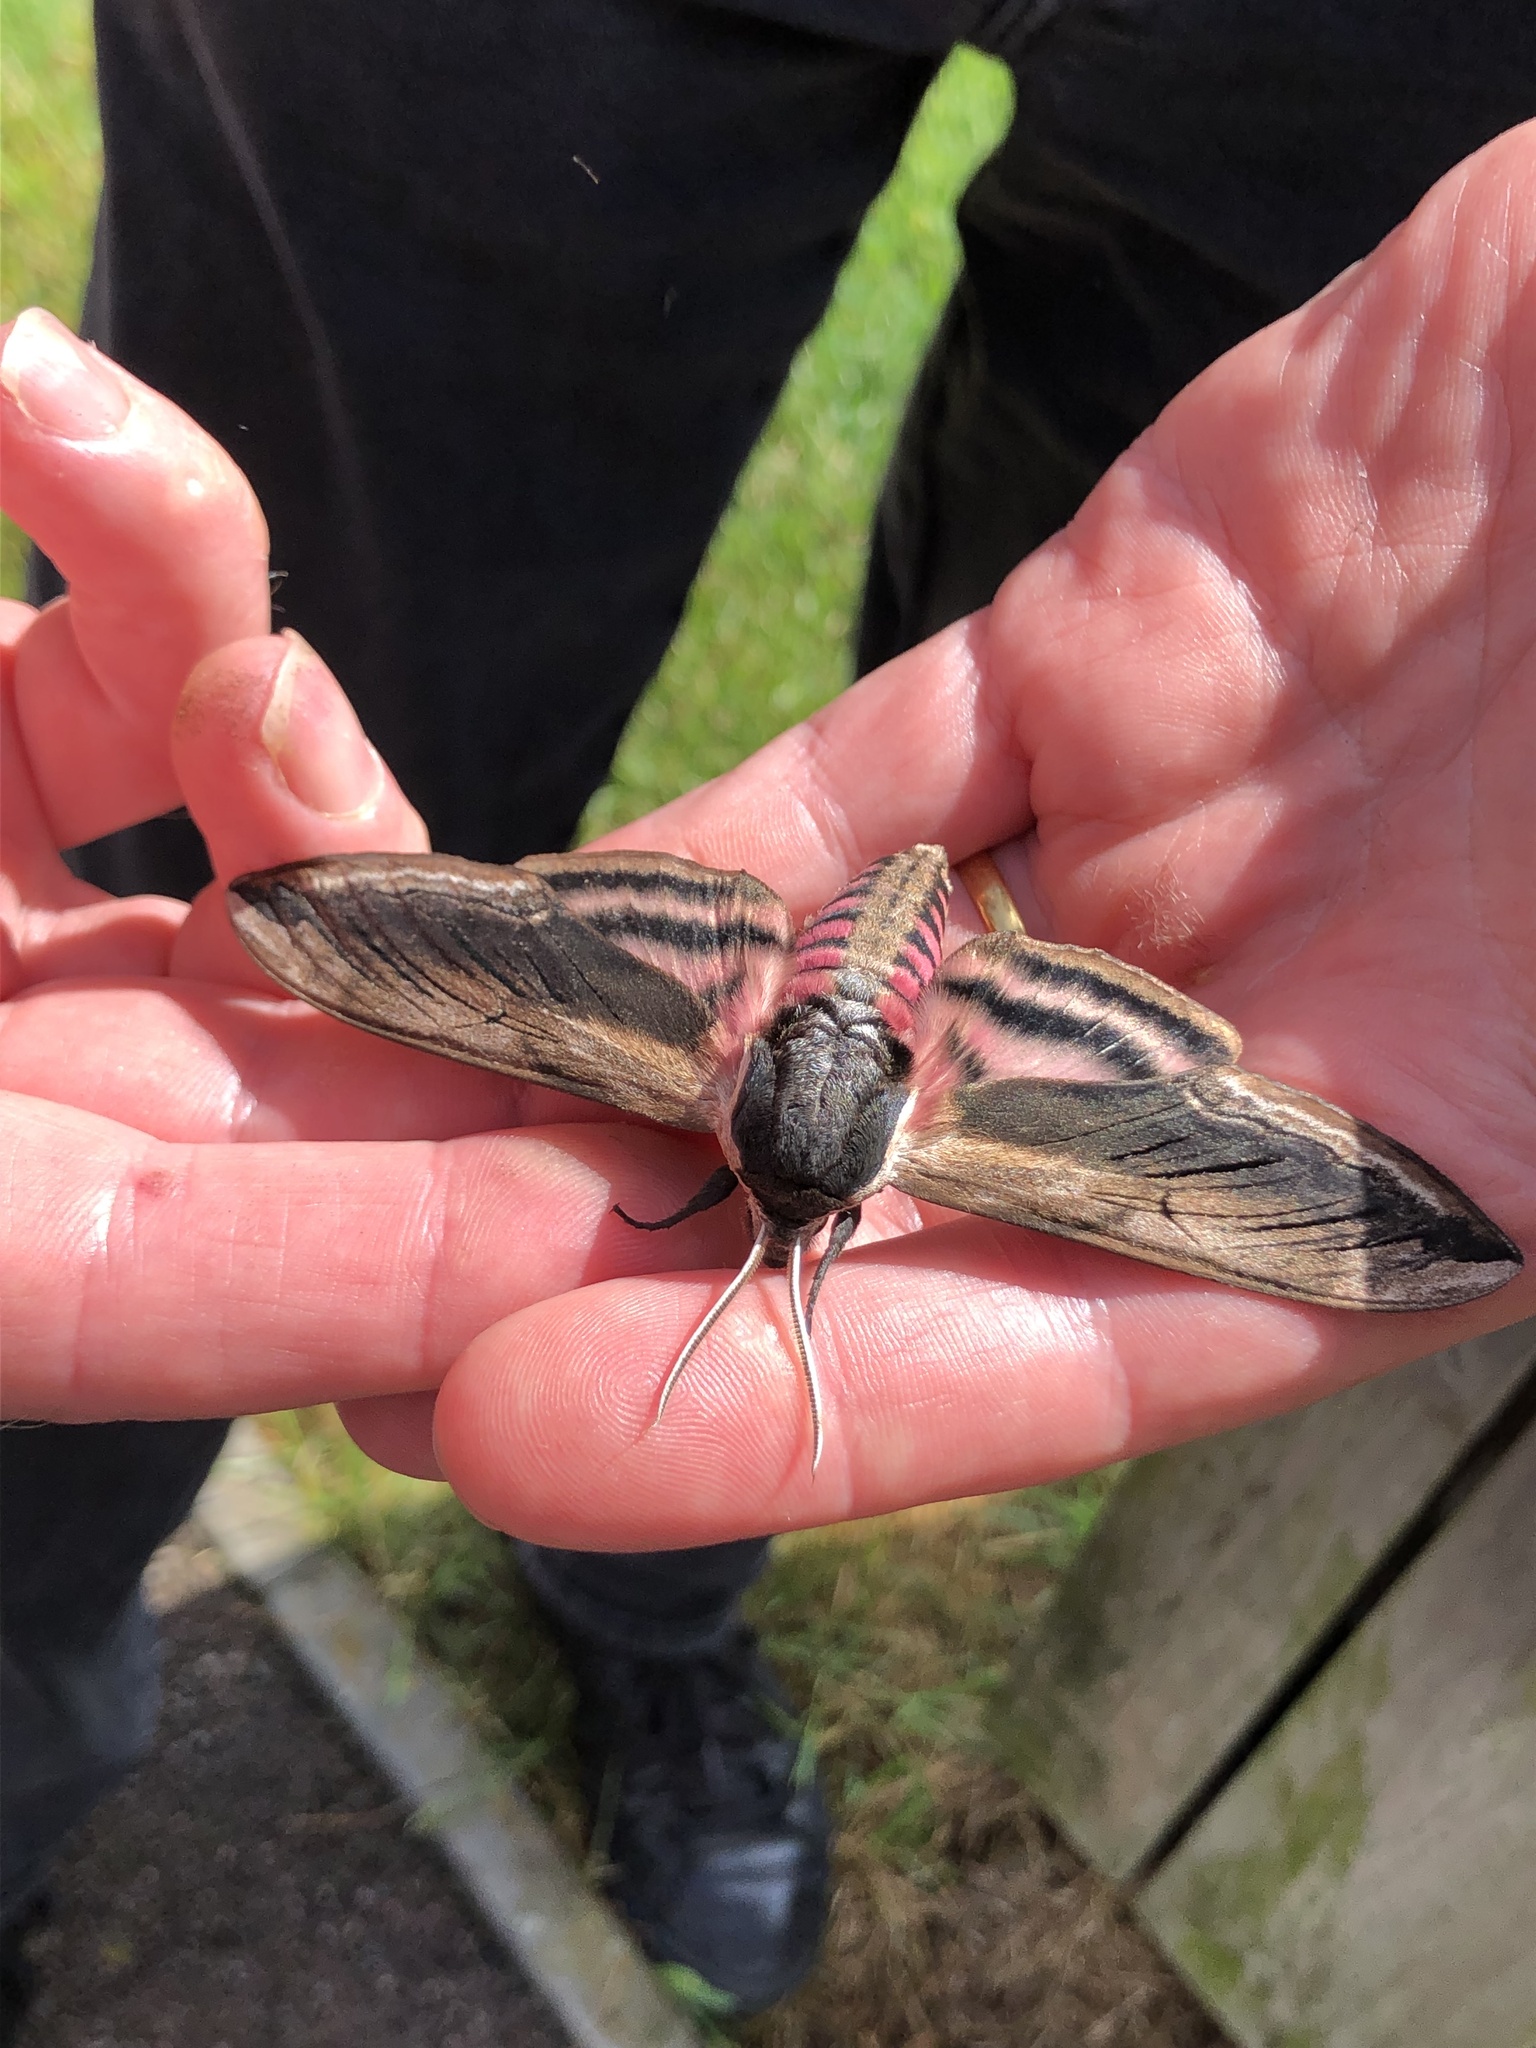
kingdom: Animalia
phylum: Arthropoda
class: Insecta
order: Lepidoptera
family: Sphingidae
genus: Sphinx
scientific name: Sphinx ligustri
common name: Privet hawk-moth
